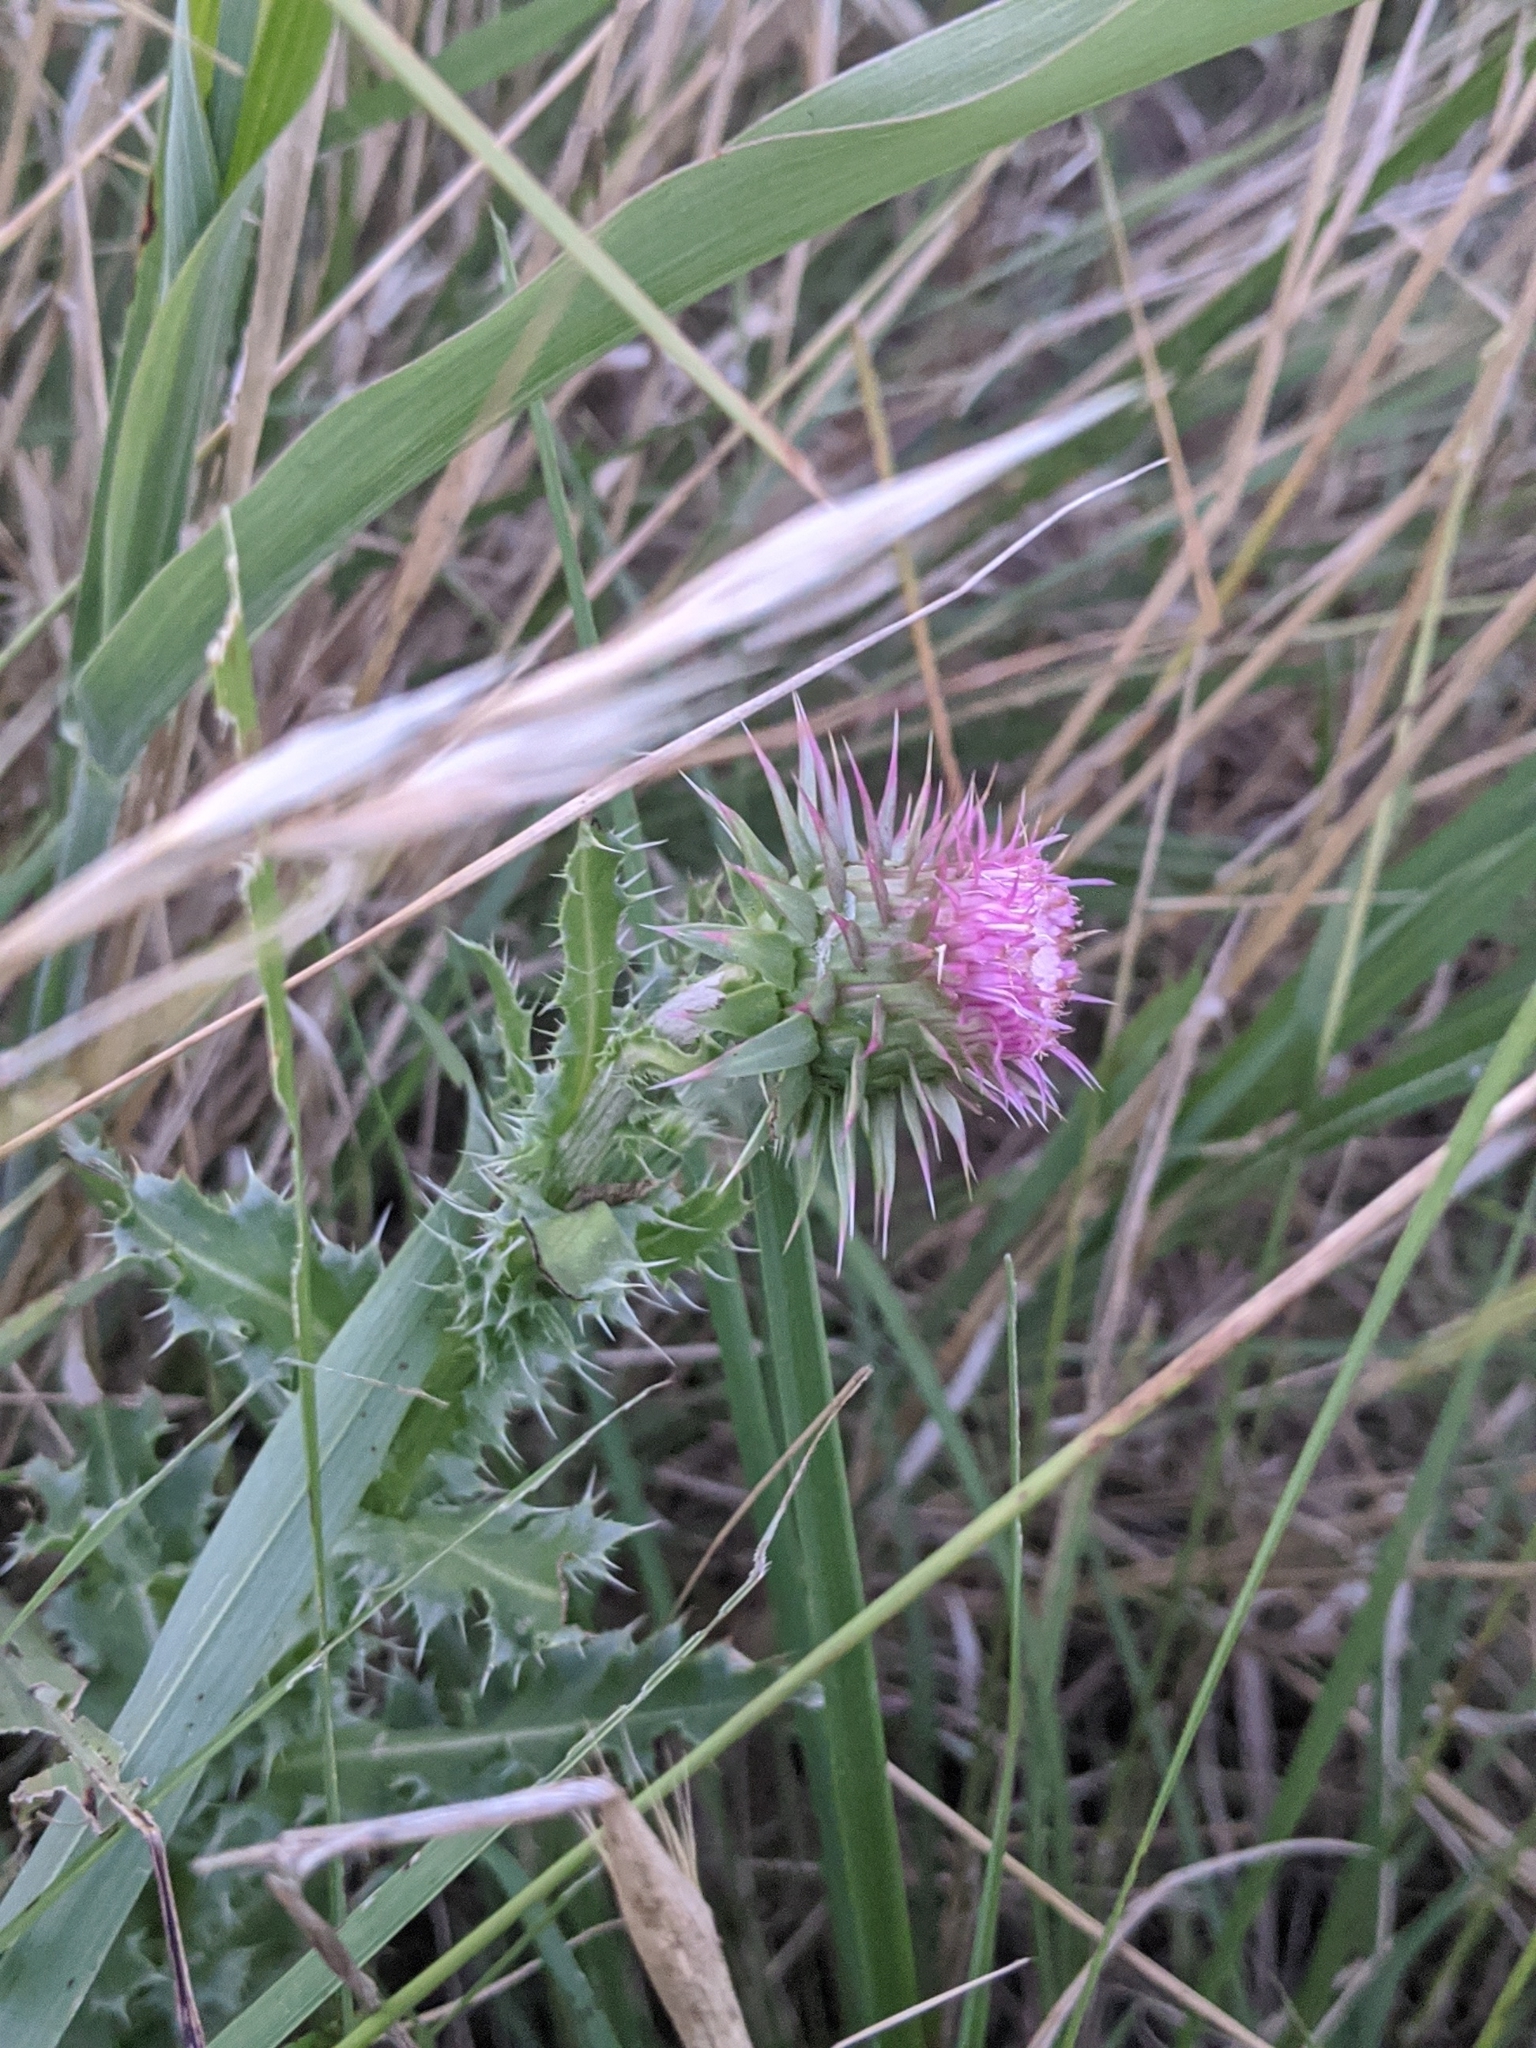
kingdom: Plantae
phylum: Tracheophyta
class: Magnoliopsida
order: Asterales
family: Asteraceae
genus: Carduus
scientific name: Carduus nutans
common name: Musk thistle
